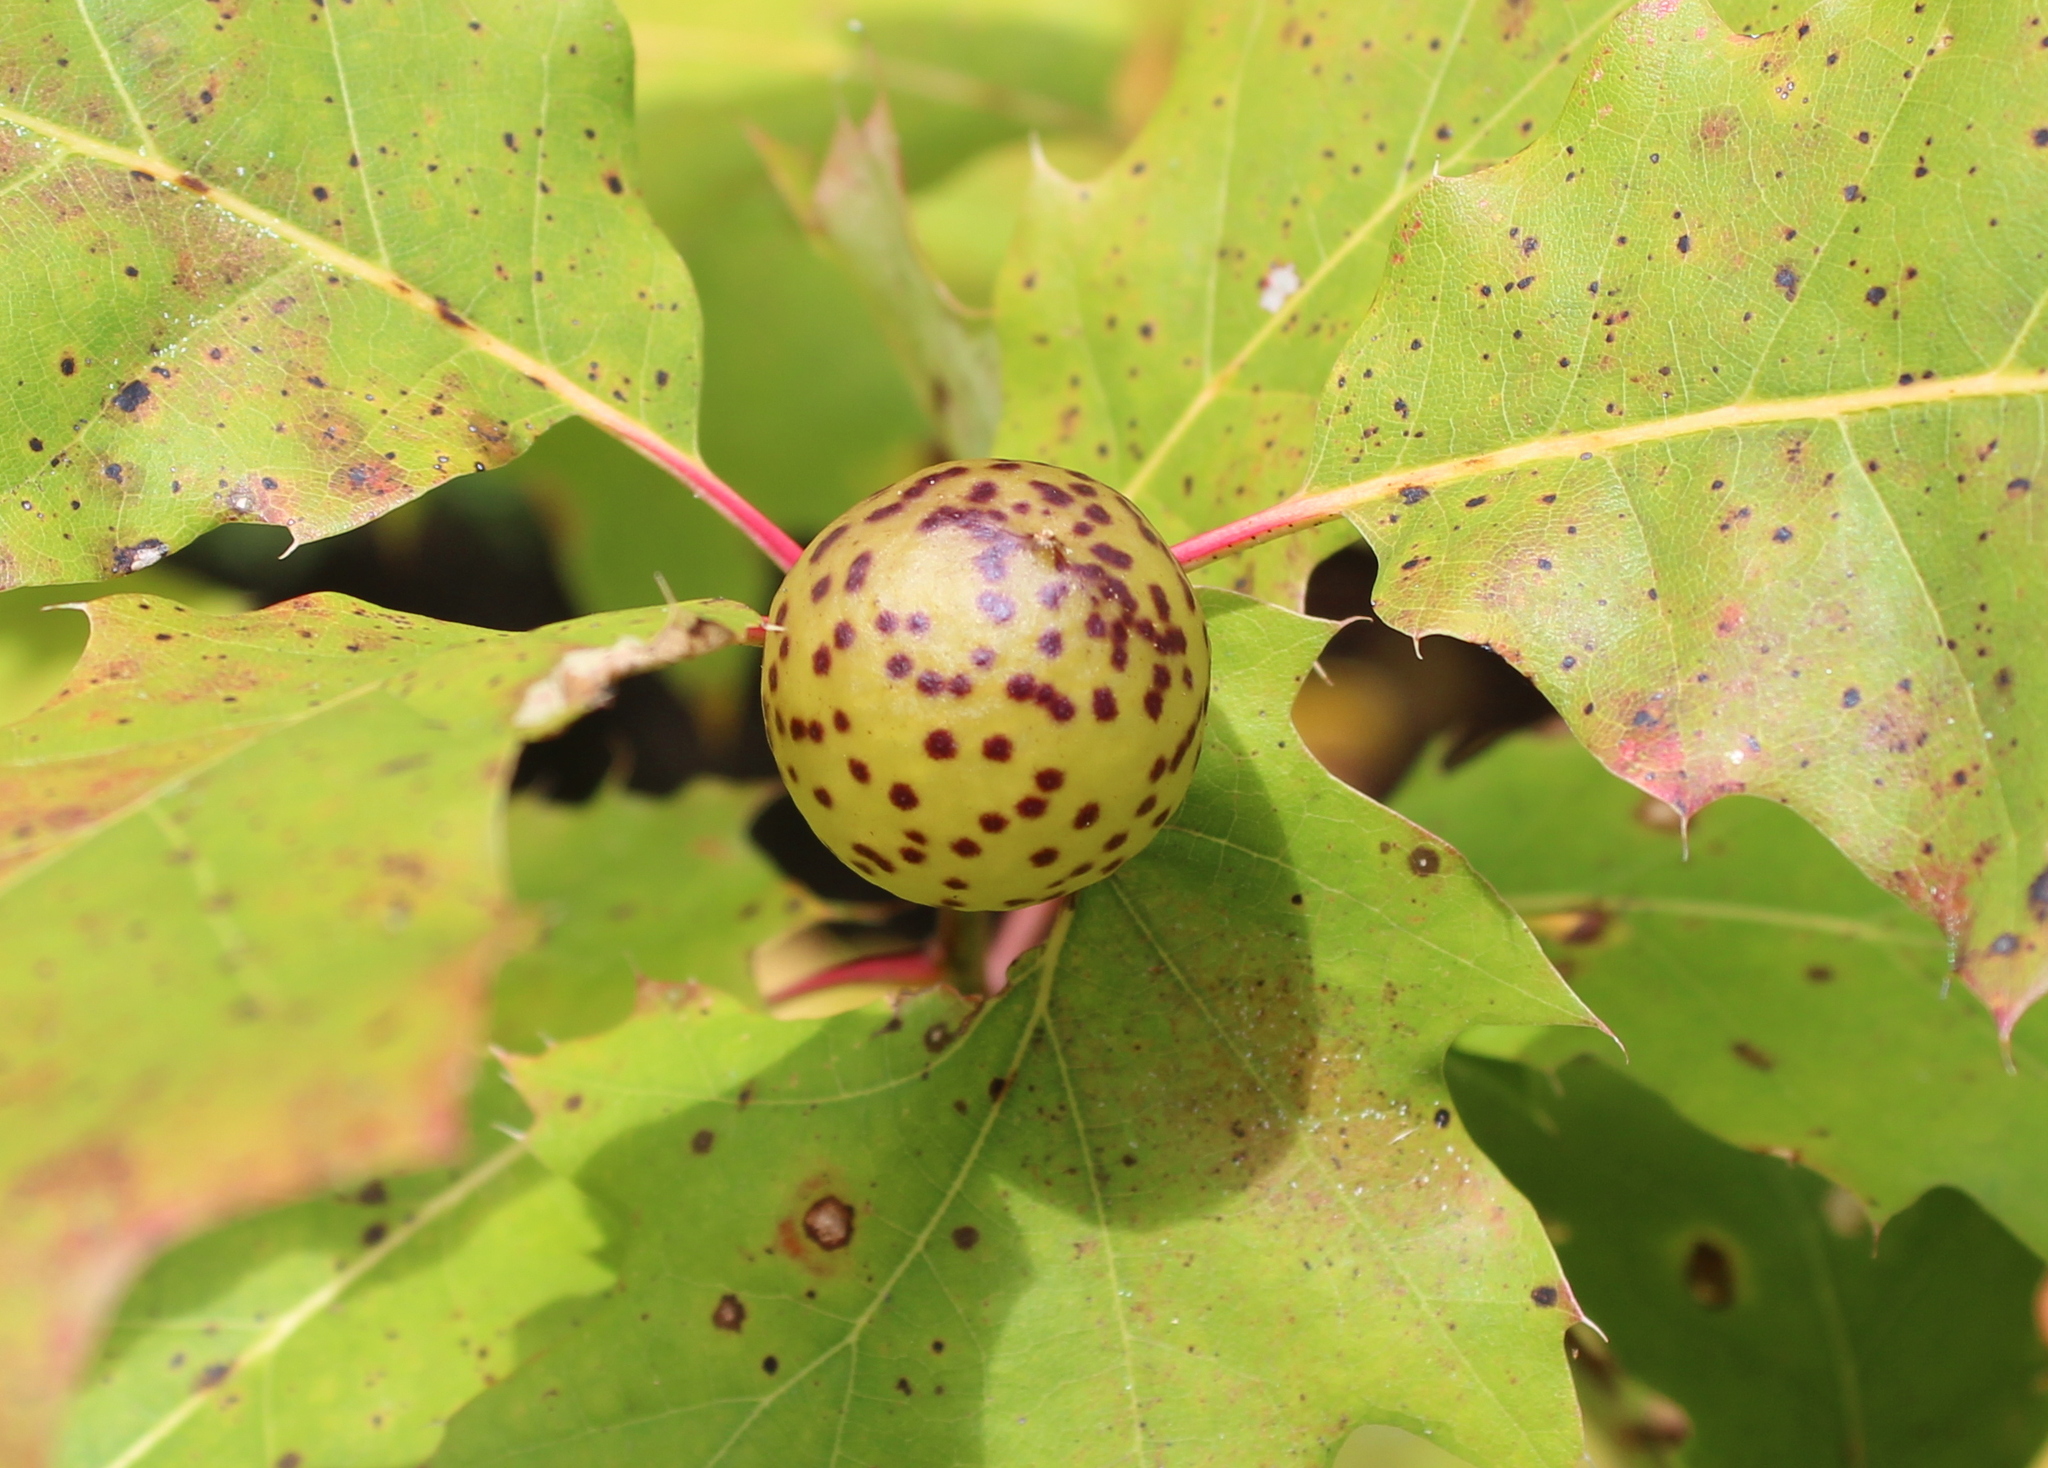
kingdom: Animalia
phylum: Arthropoda
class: Insecta
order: Hymenoptera
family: Cynipidae
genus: Amphibolips
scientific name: Amphibolips
